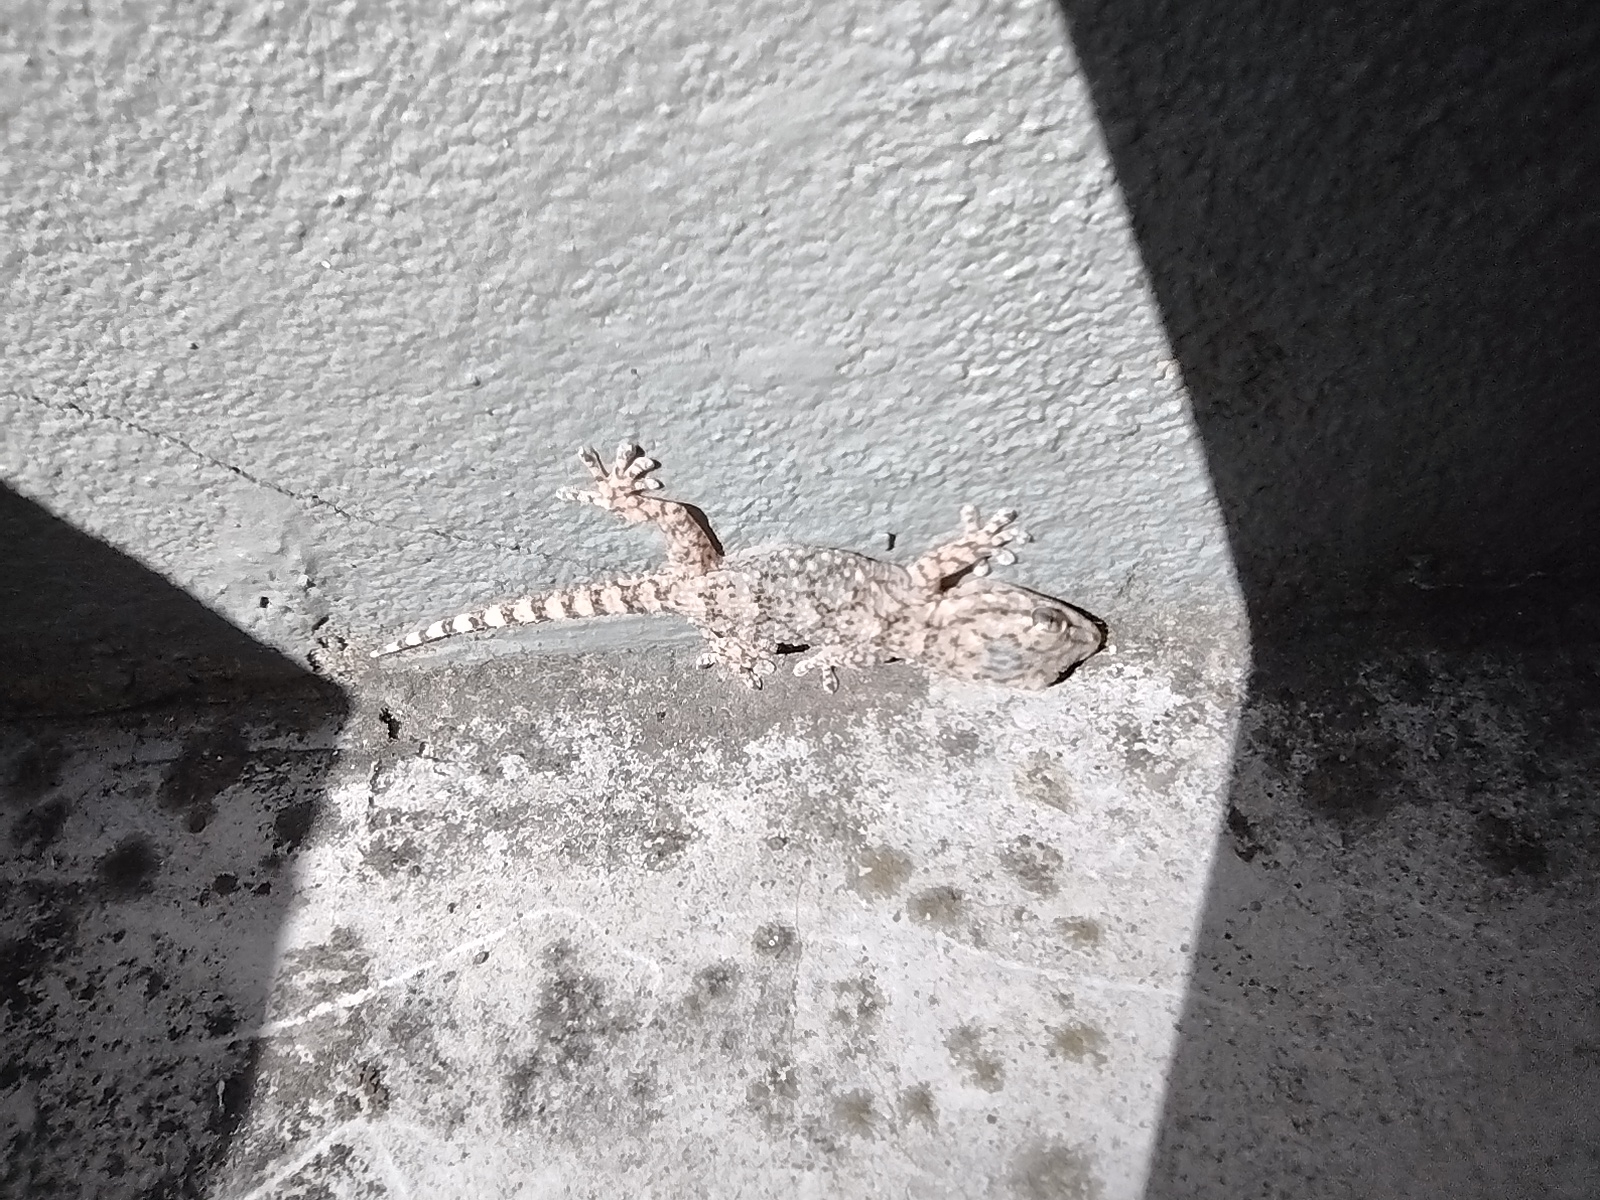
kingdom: Animalia
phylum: Chordata
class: Squamata
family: Phyllodactylidae
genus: Tarentola
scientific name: Tarentola mauritanica
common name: Moorish gecko
